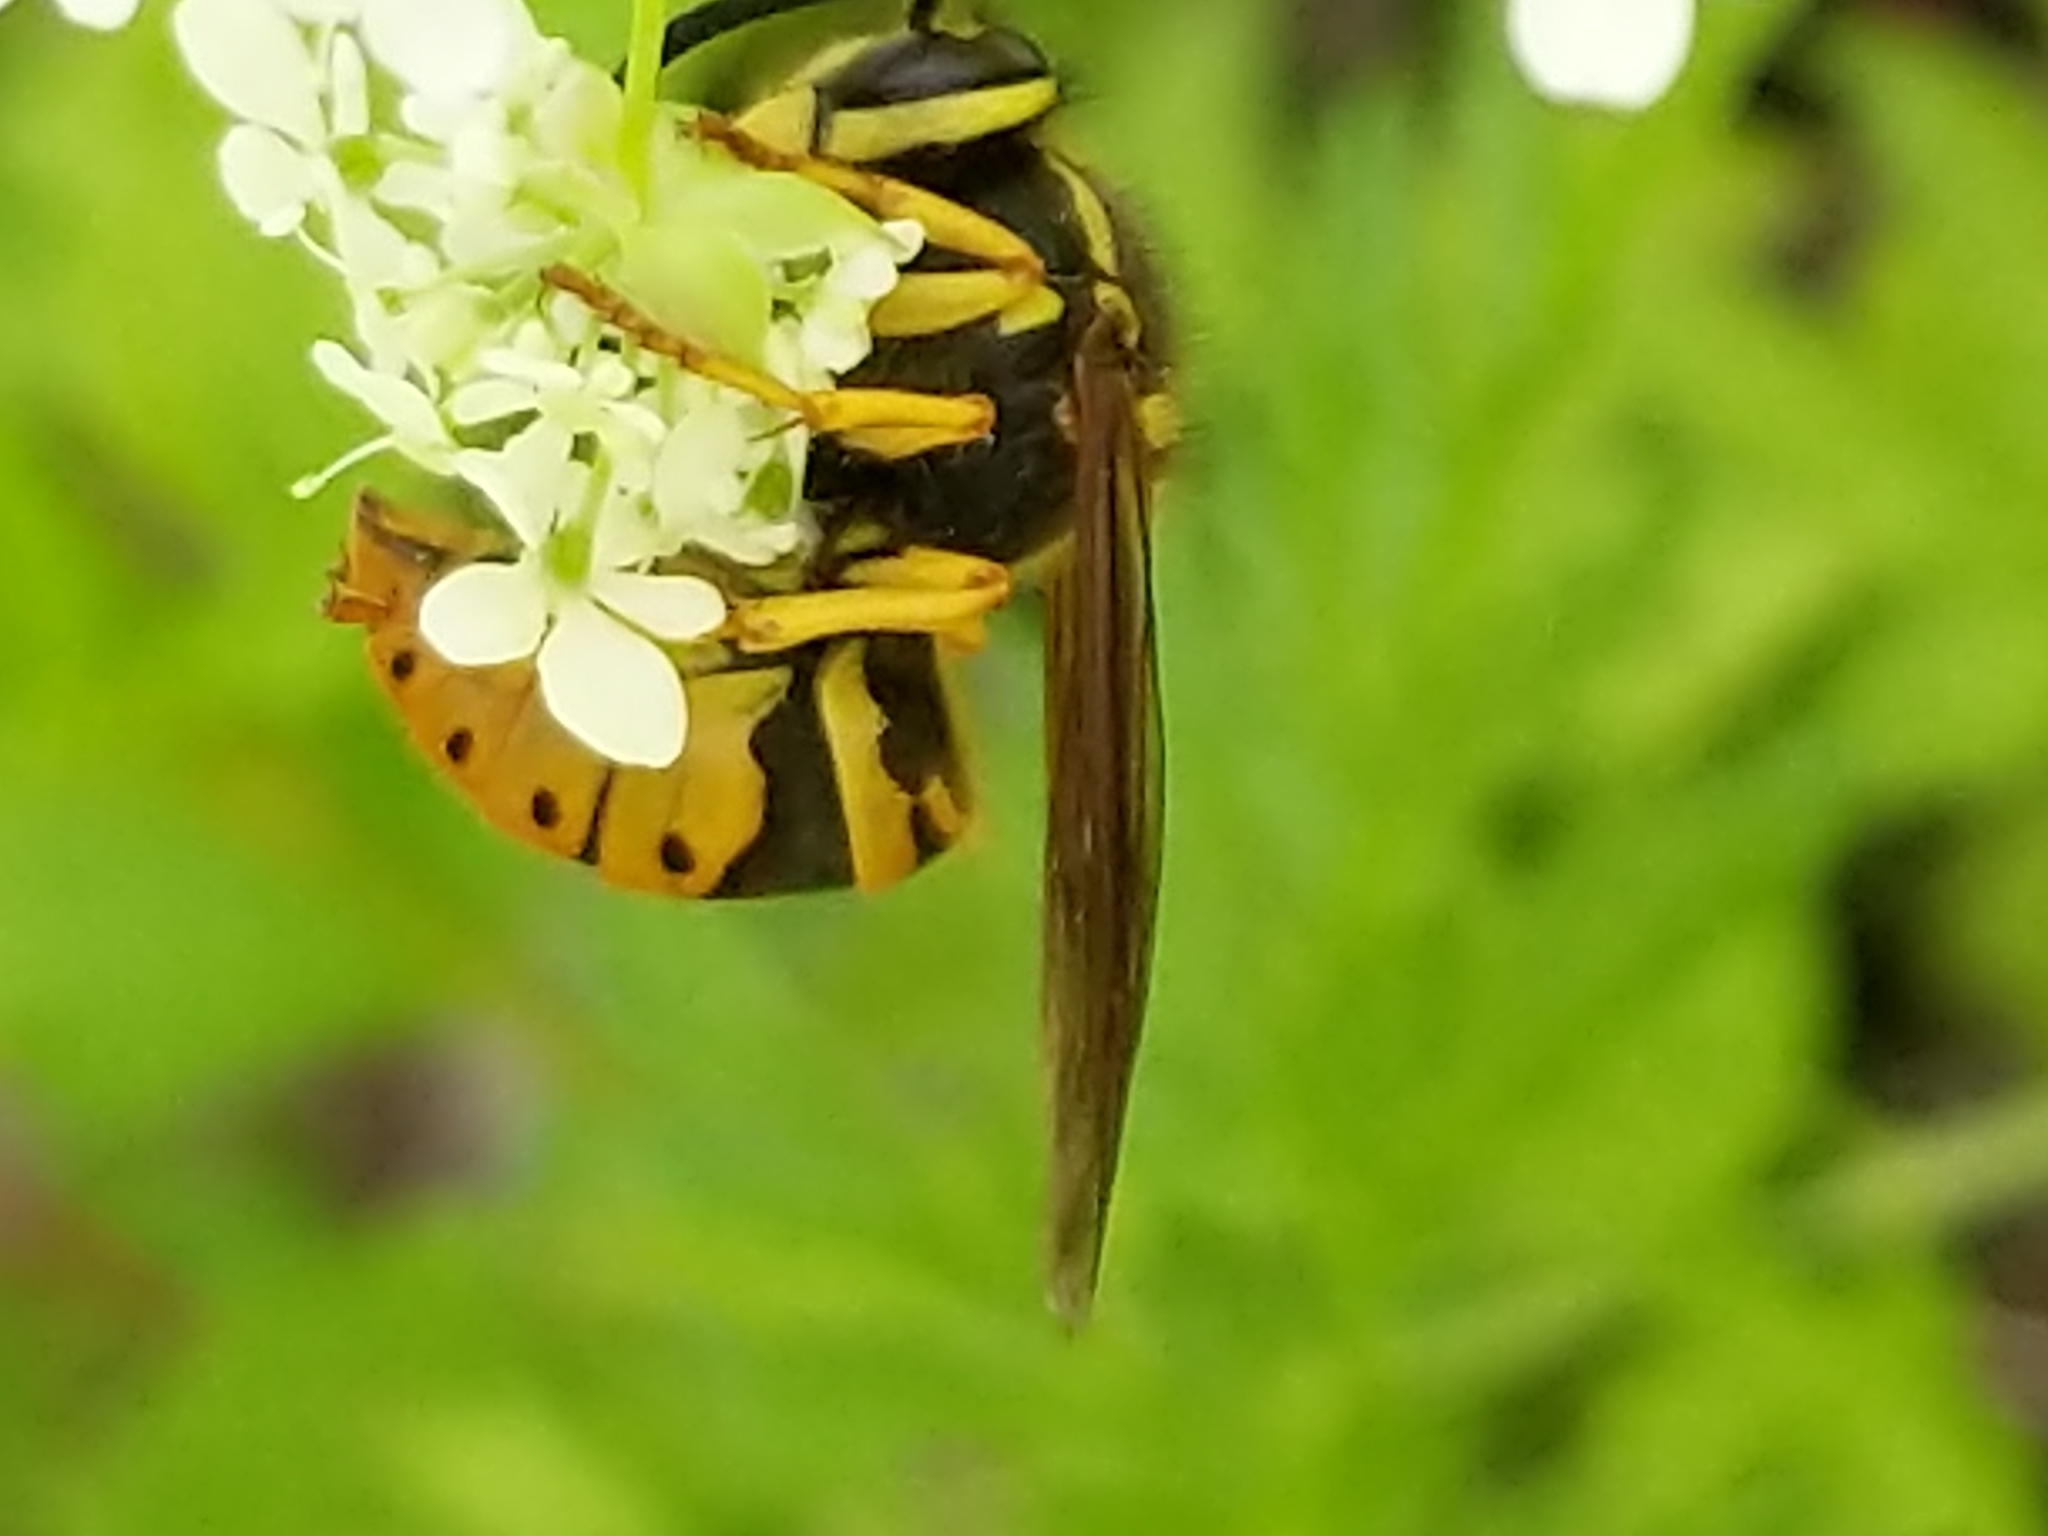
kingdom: Animalia
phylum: Arthropoda
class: Insecta
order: Hymenoptera
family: Vespidae
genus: Vespula
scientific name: Vespula maculifrons
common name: Eastern yellowjacket
